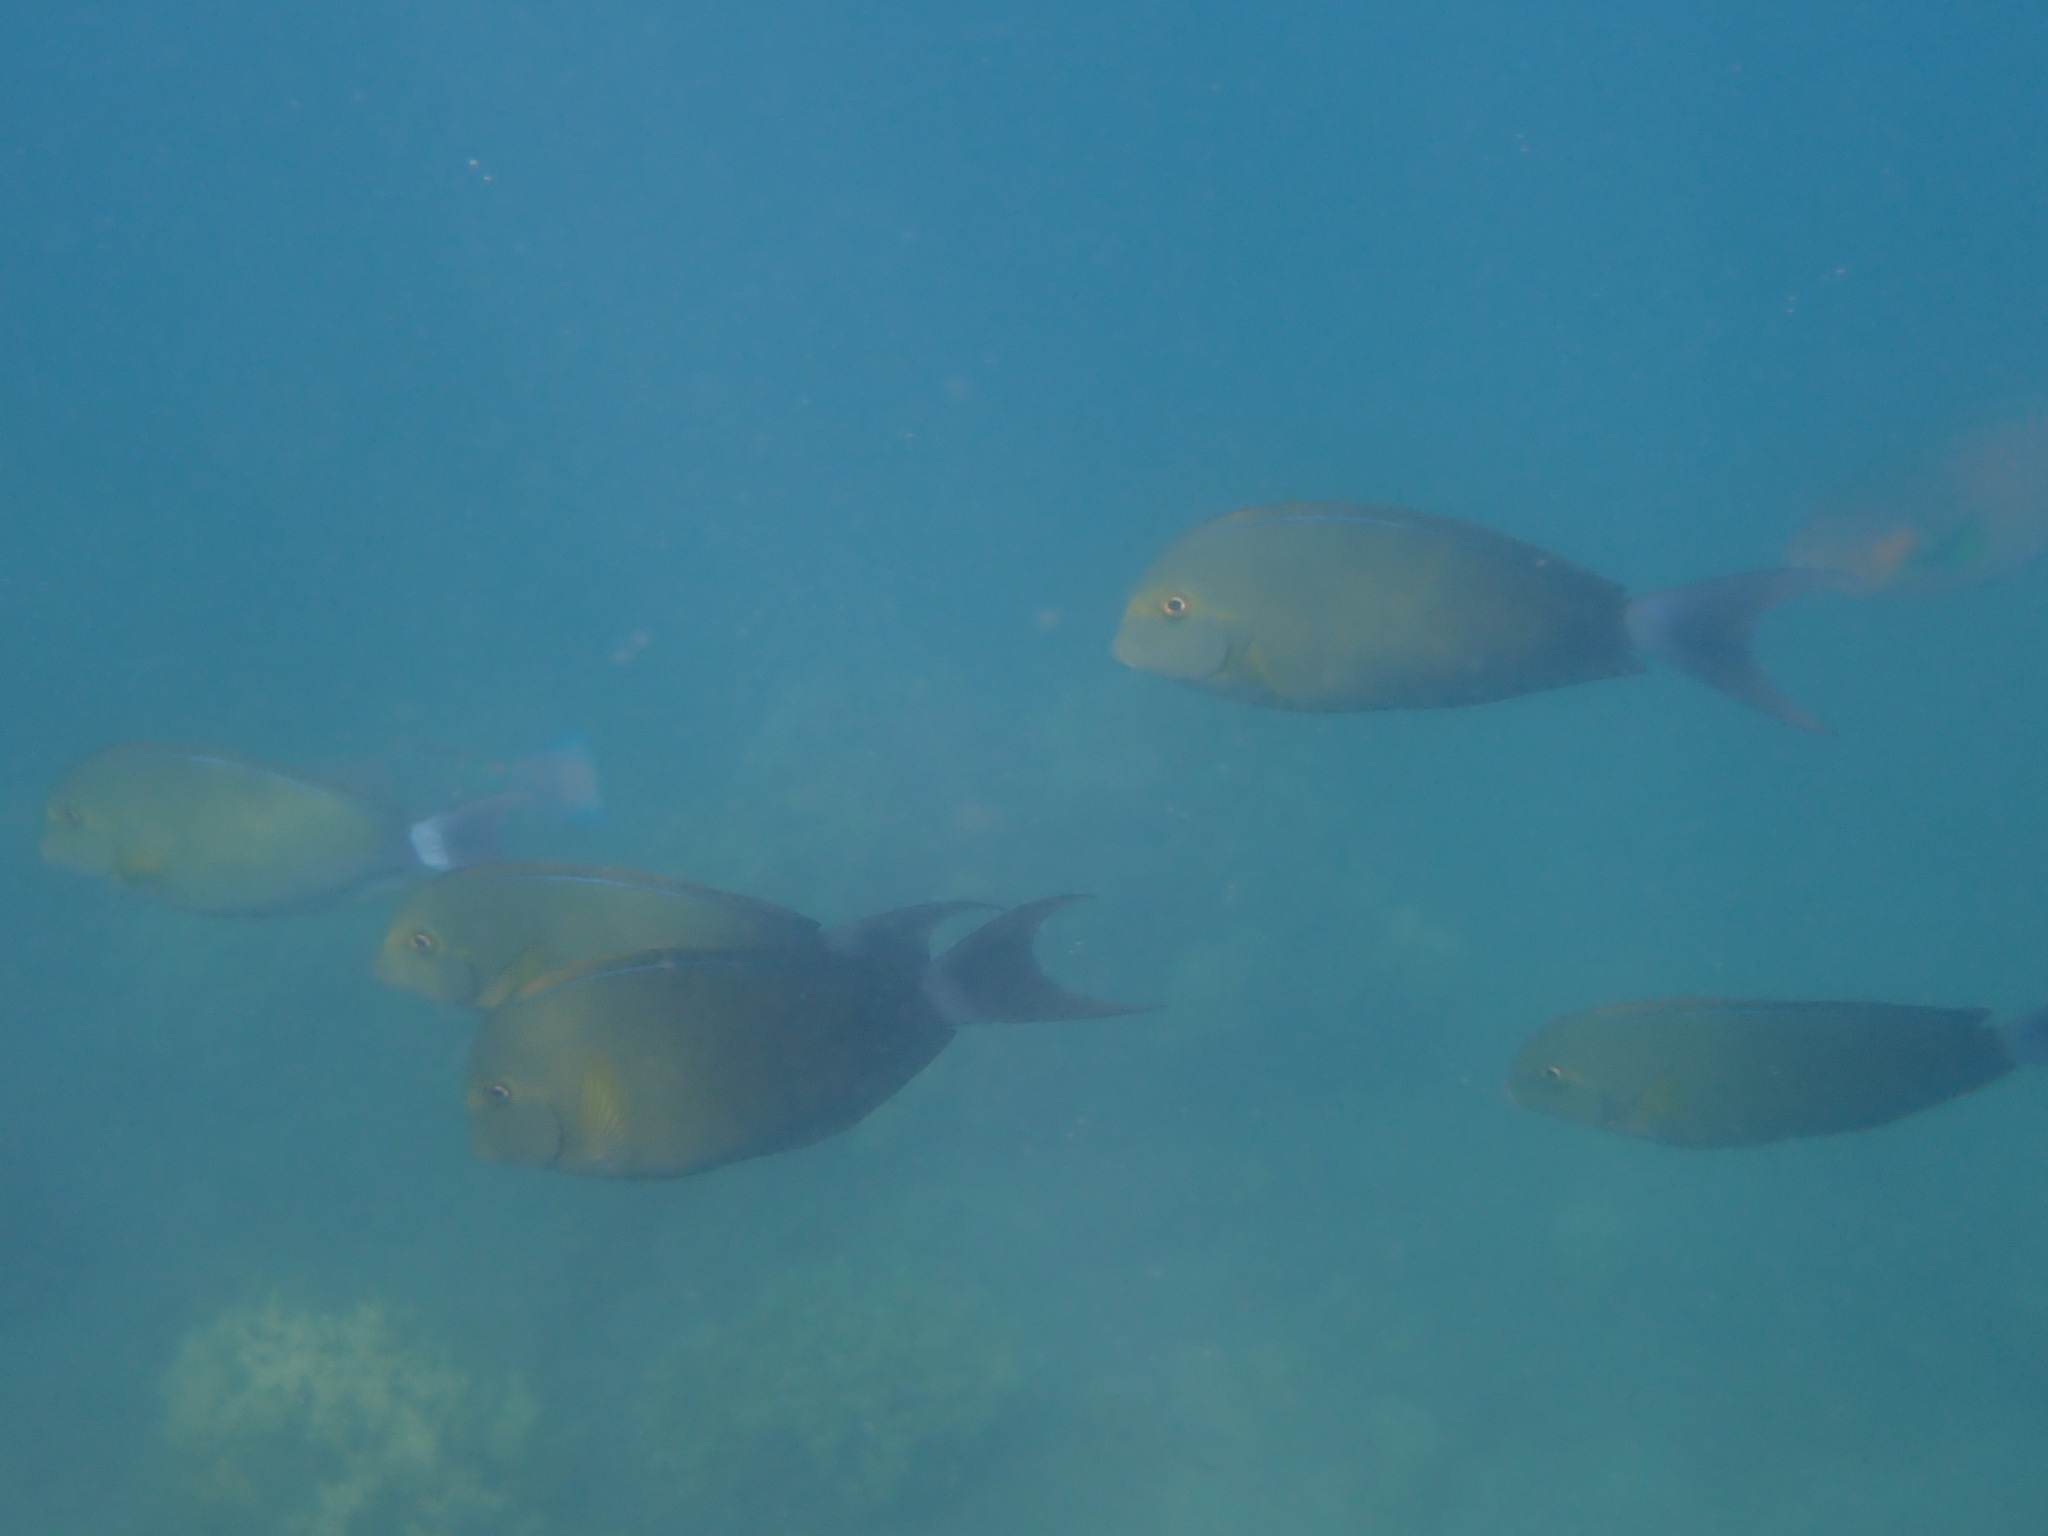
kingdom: Animalia
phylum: Chordata
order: Perciformes
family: Acanthuridae
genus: Acanthurus
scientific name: Acanthurus xanthopterus
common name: Cuvier's surgeonfish
